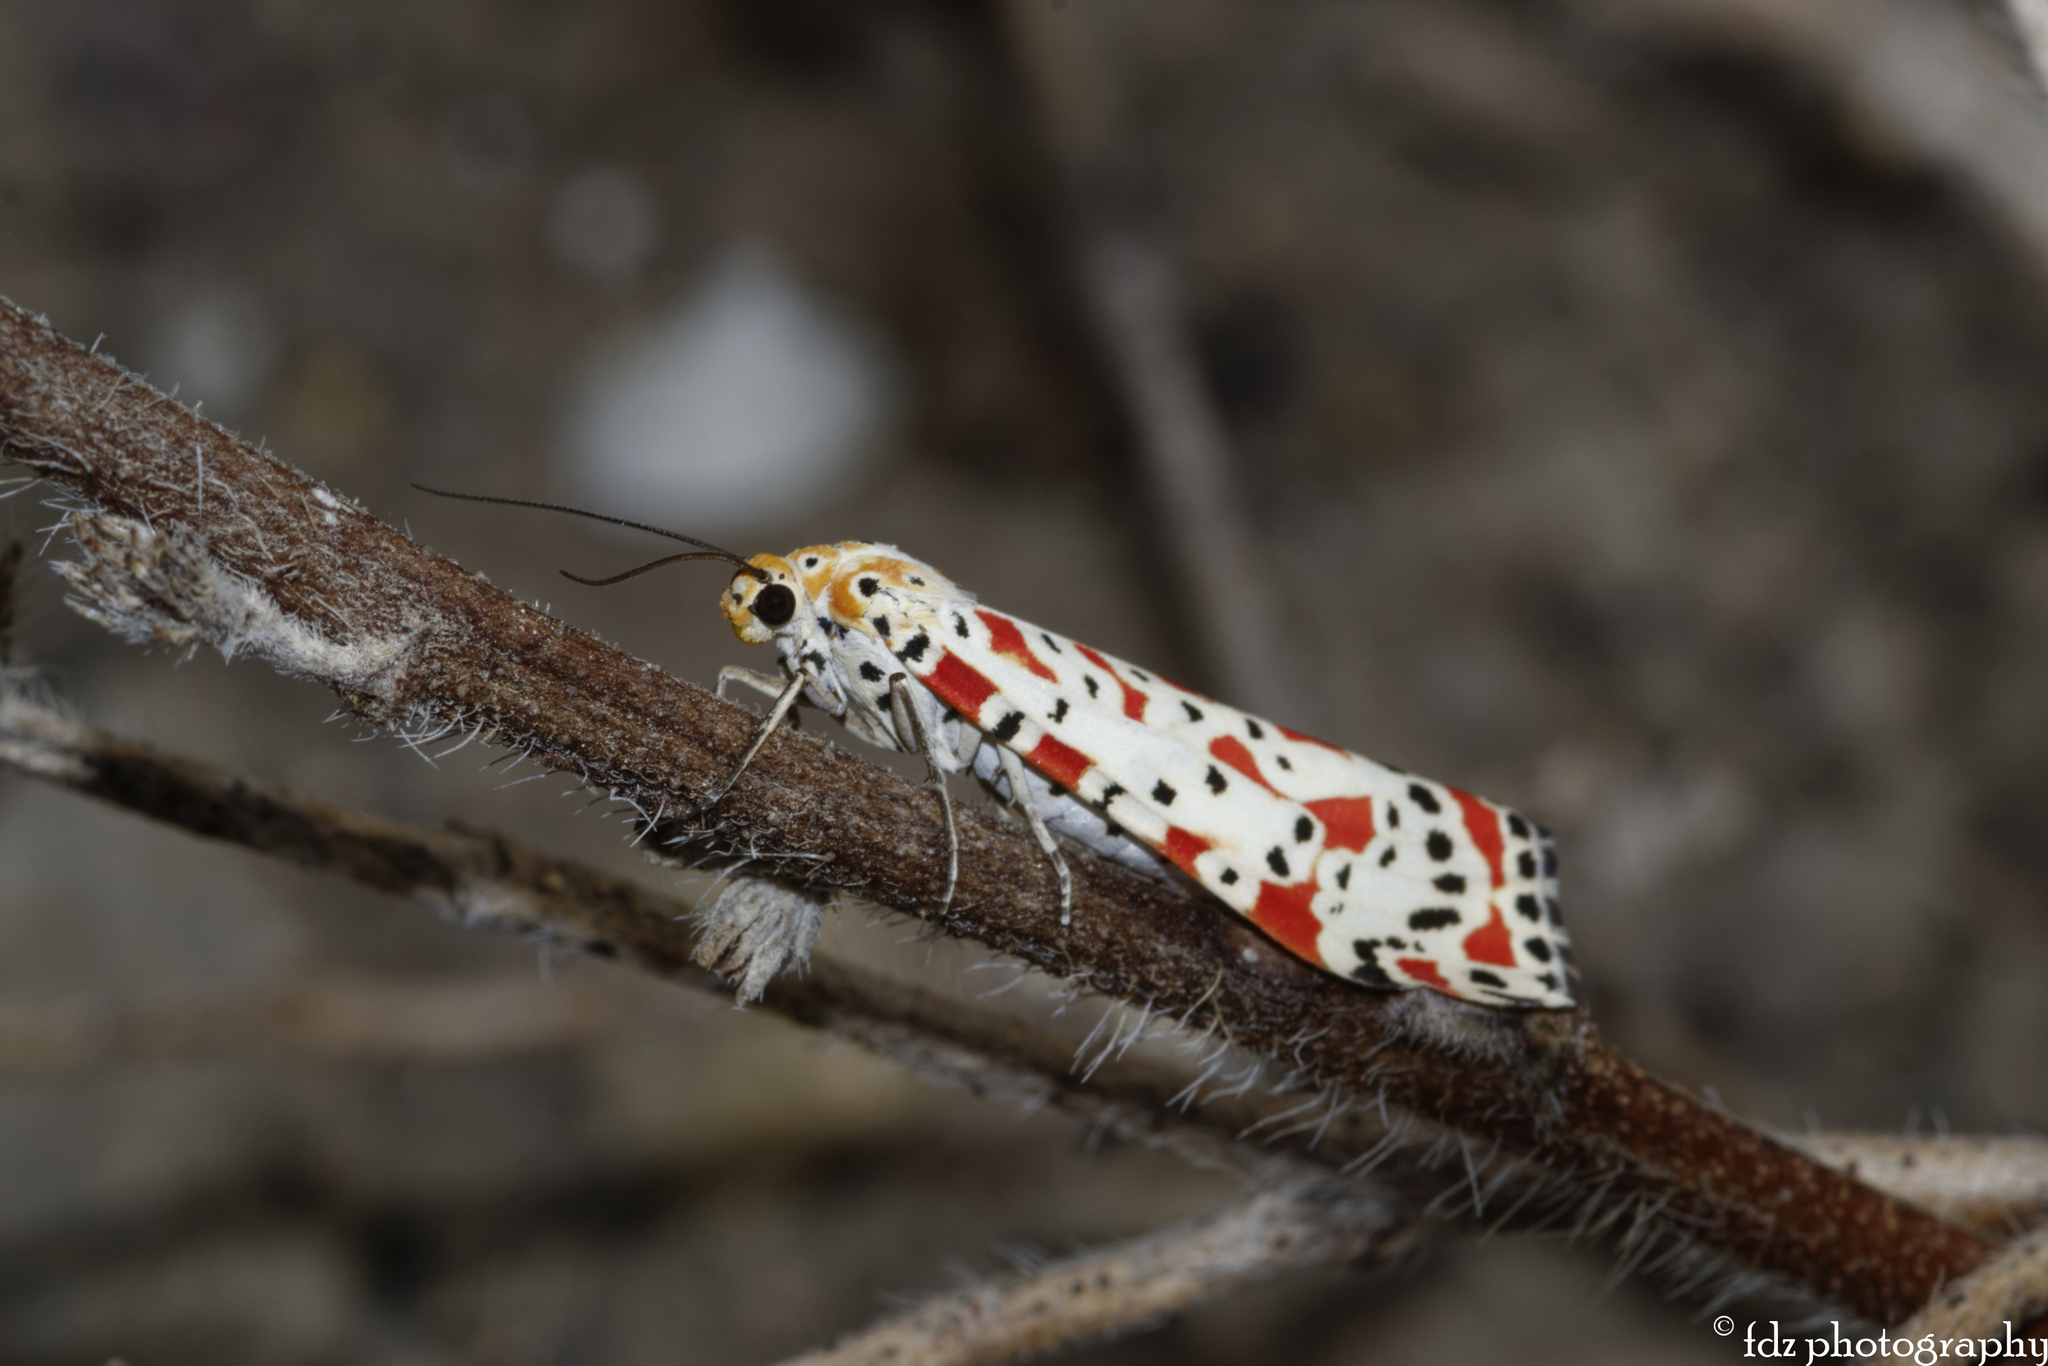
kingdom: Animalia
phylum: Arthropoda
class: Insecta
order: Lepidoptera
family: Erebidae
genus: Utetheisa
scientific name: Utetheisa pulchella
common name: Crimson speckled
